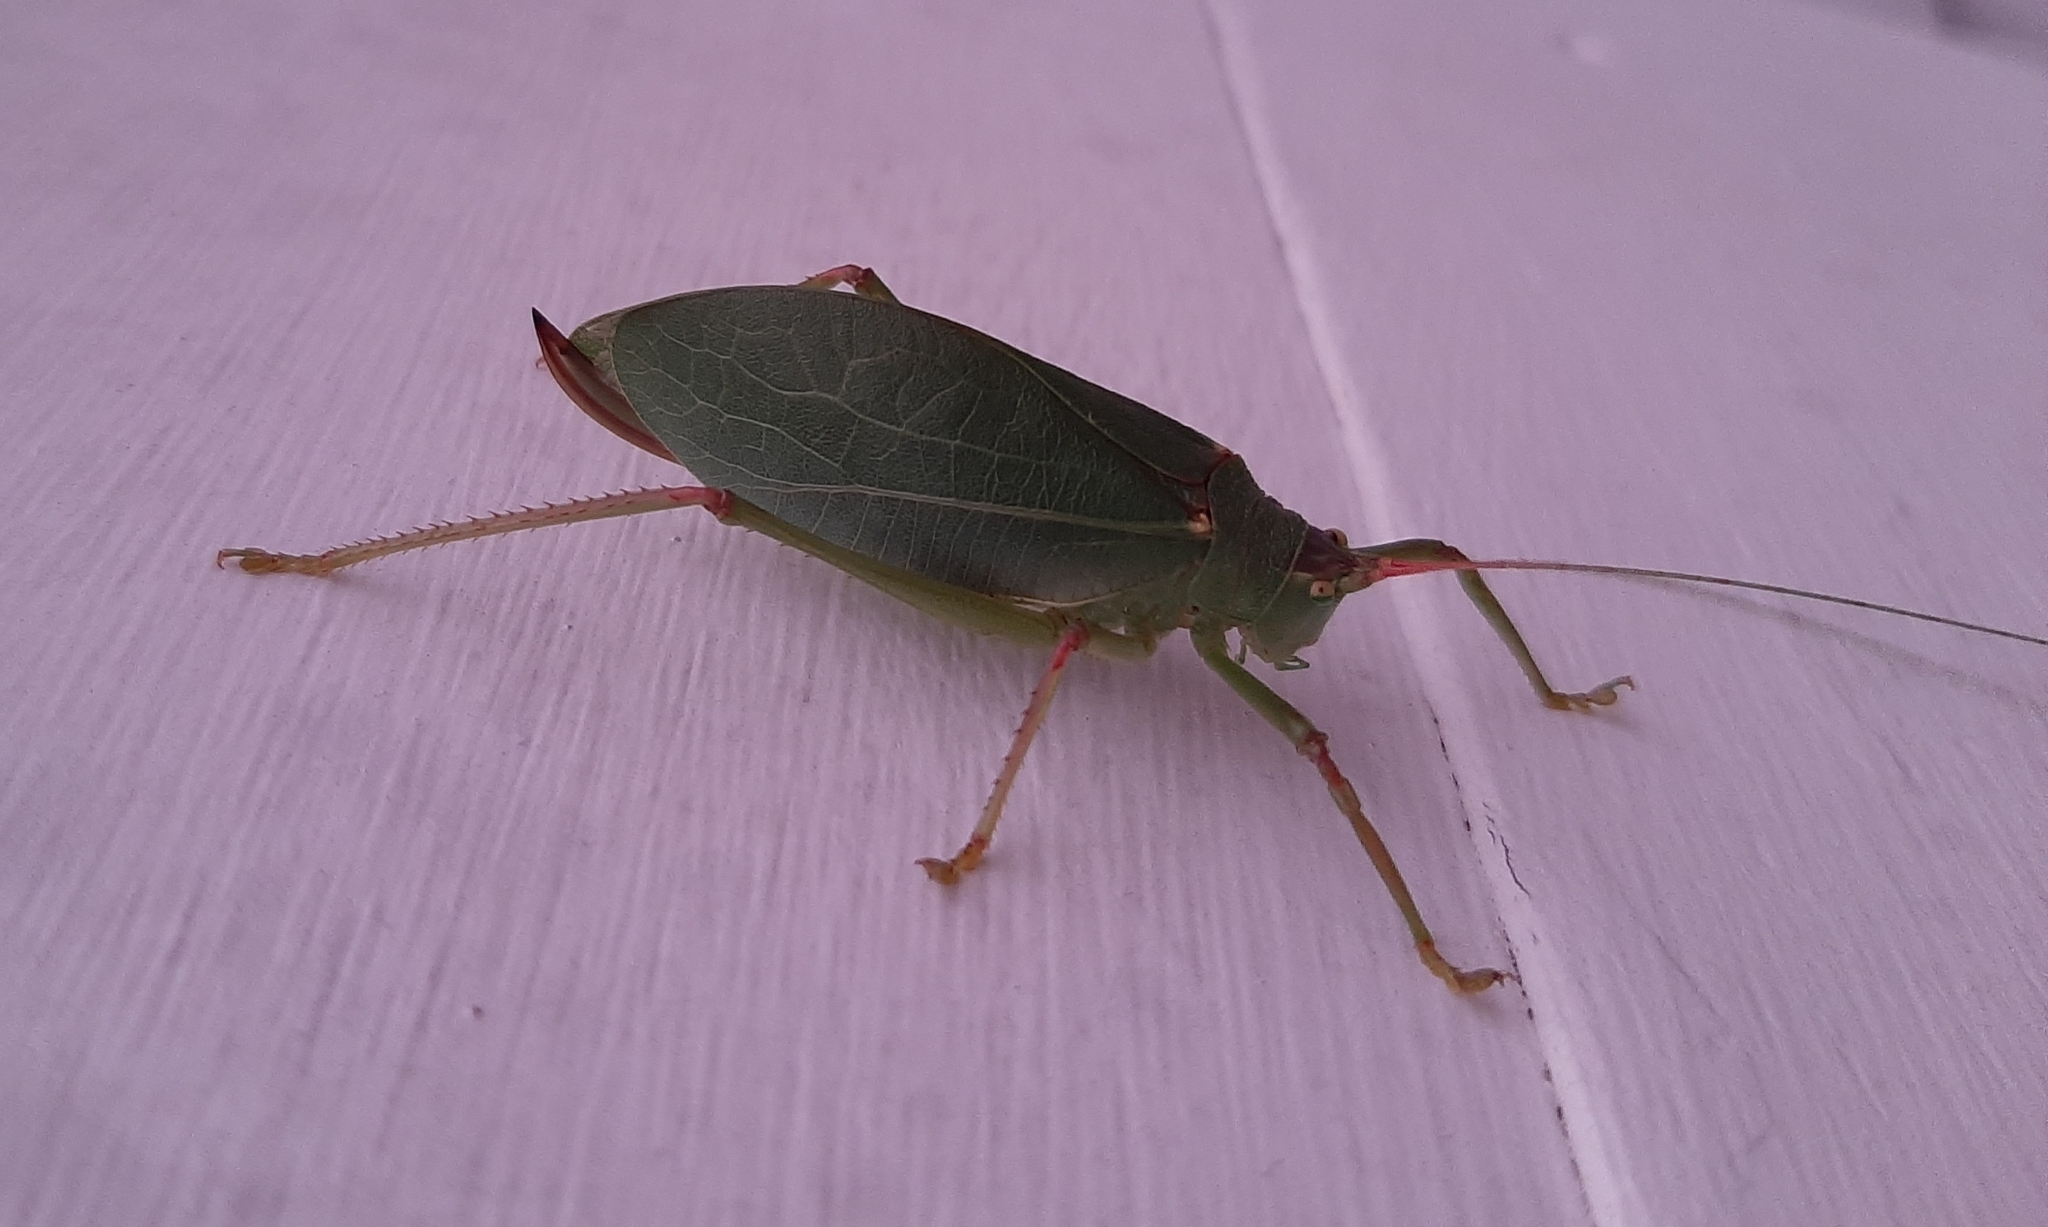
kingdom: Animalia
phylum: Arthropoda
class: Insecta
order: Orthoptera
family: Tettigoniidae
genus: Pterophylla
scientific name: Pterophylla camellifolia
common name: Common true katydid
